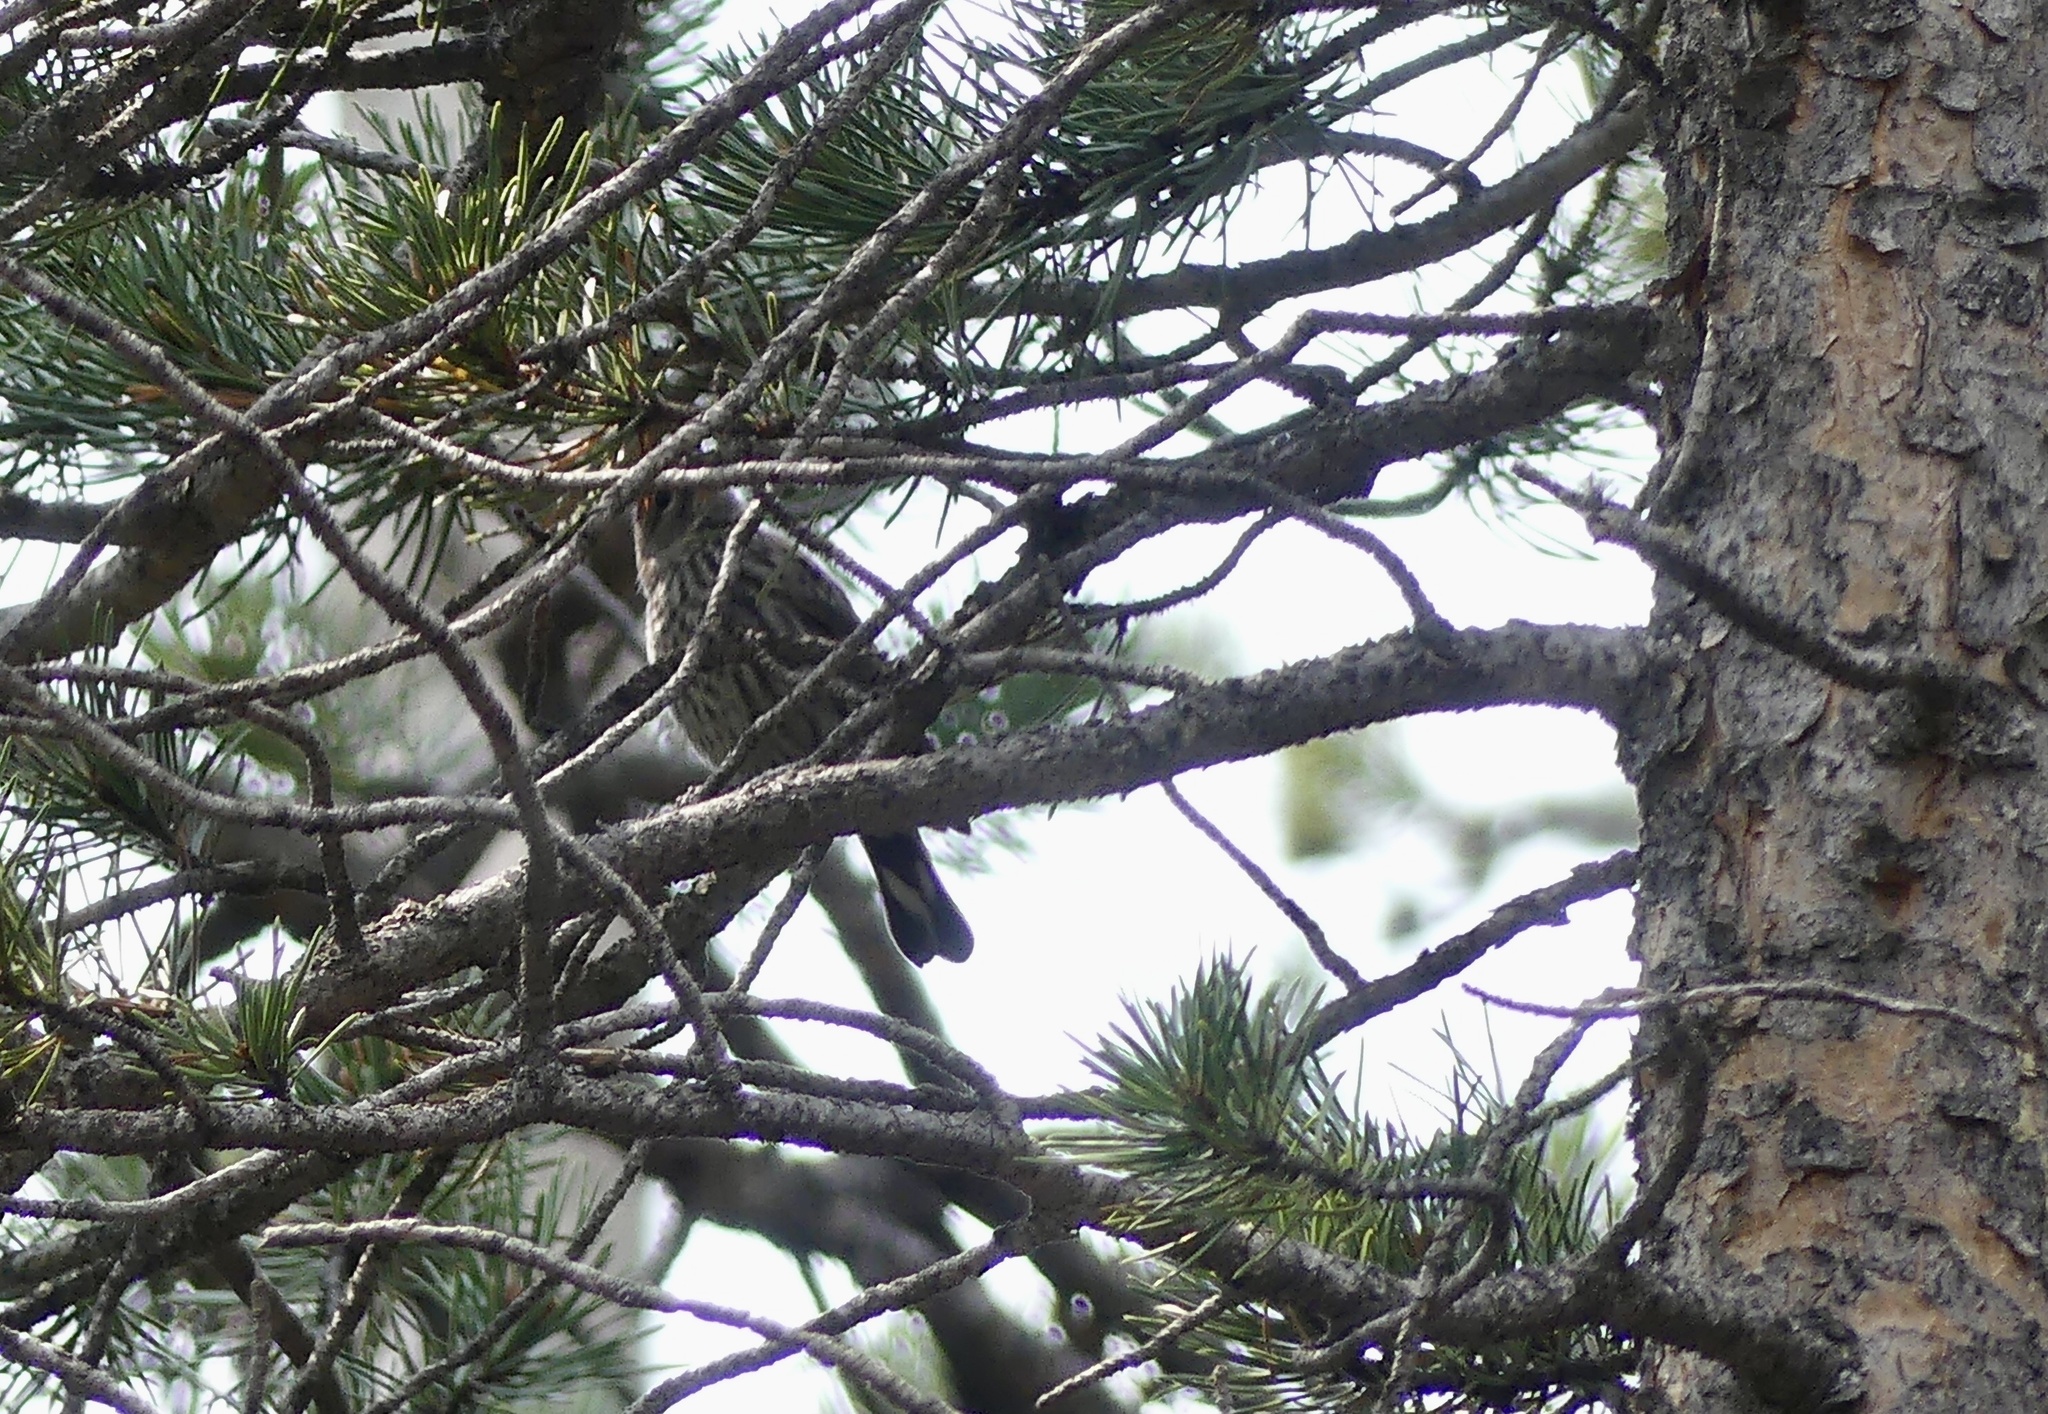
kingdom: Animalia
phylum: Chordata
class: Aves
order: Passeriformes
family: Parulidae
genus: Setophaga
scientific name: Setophaga auduboni
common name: Audubon's warbler
